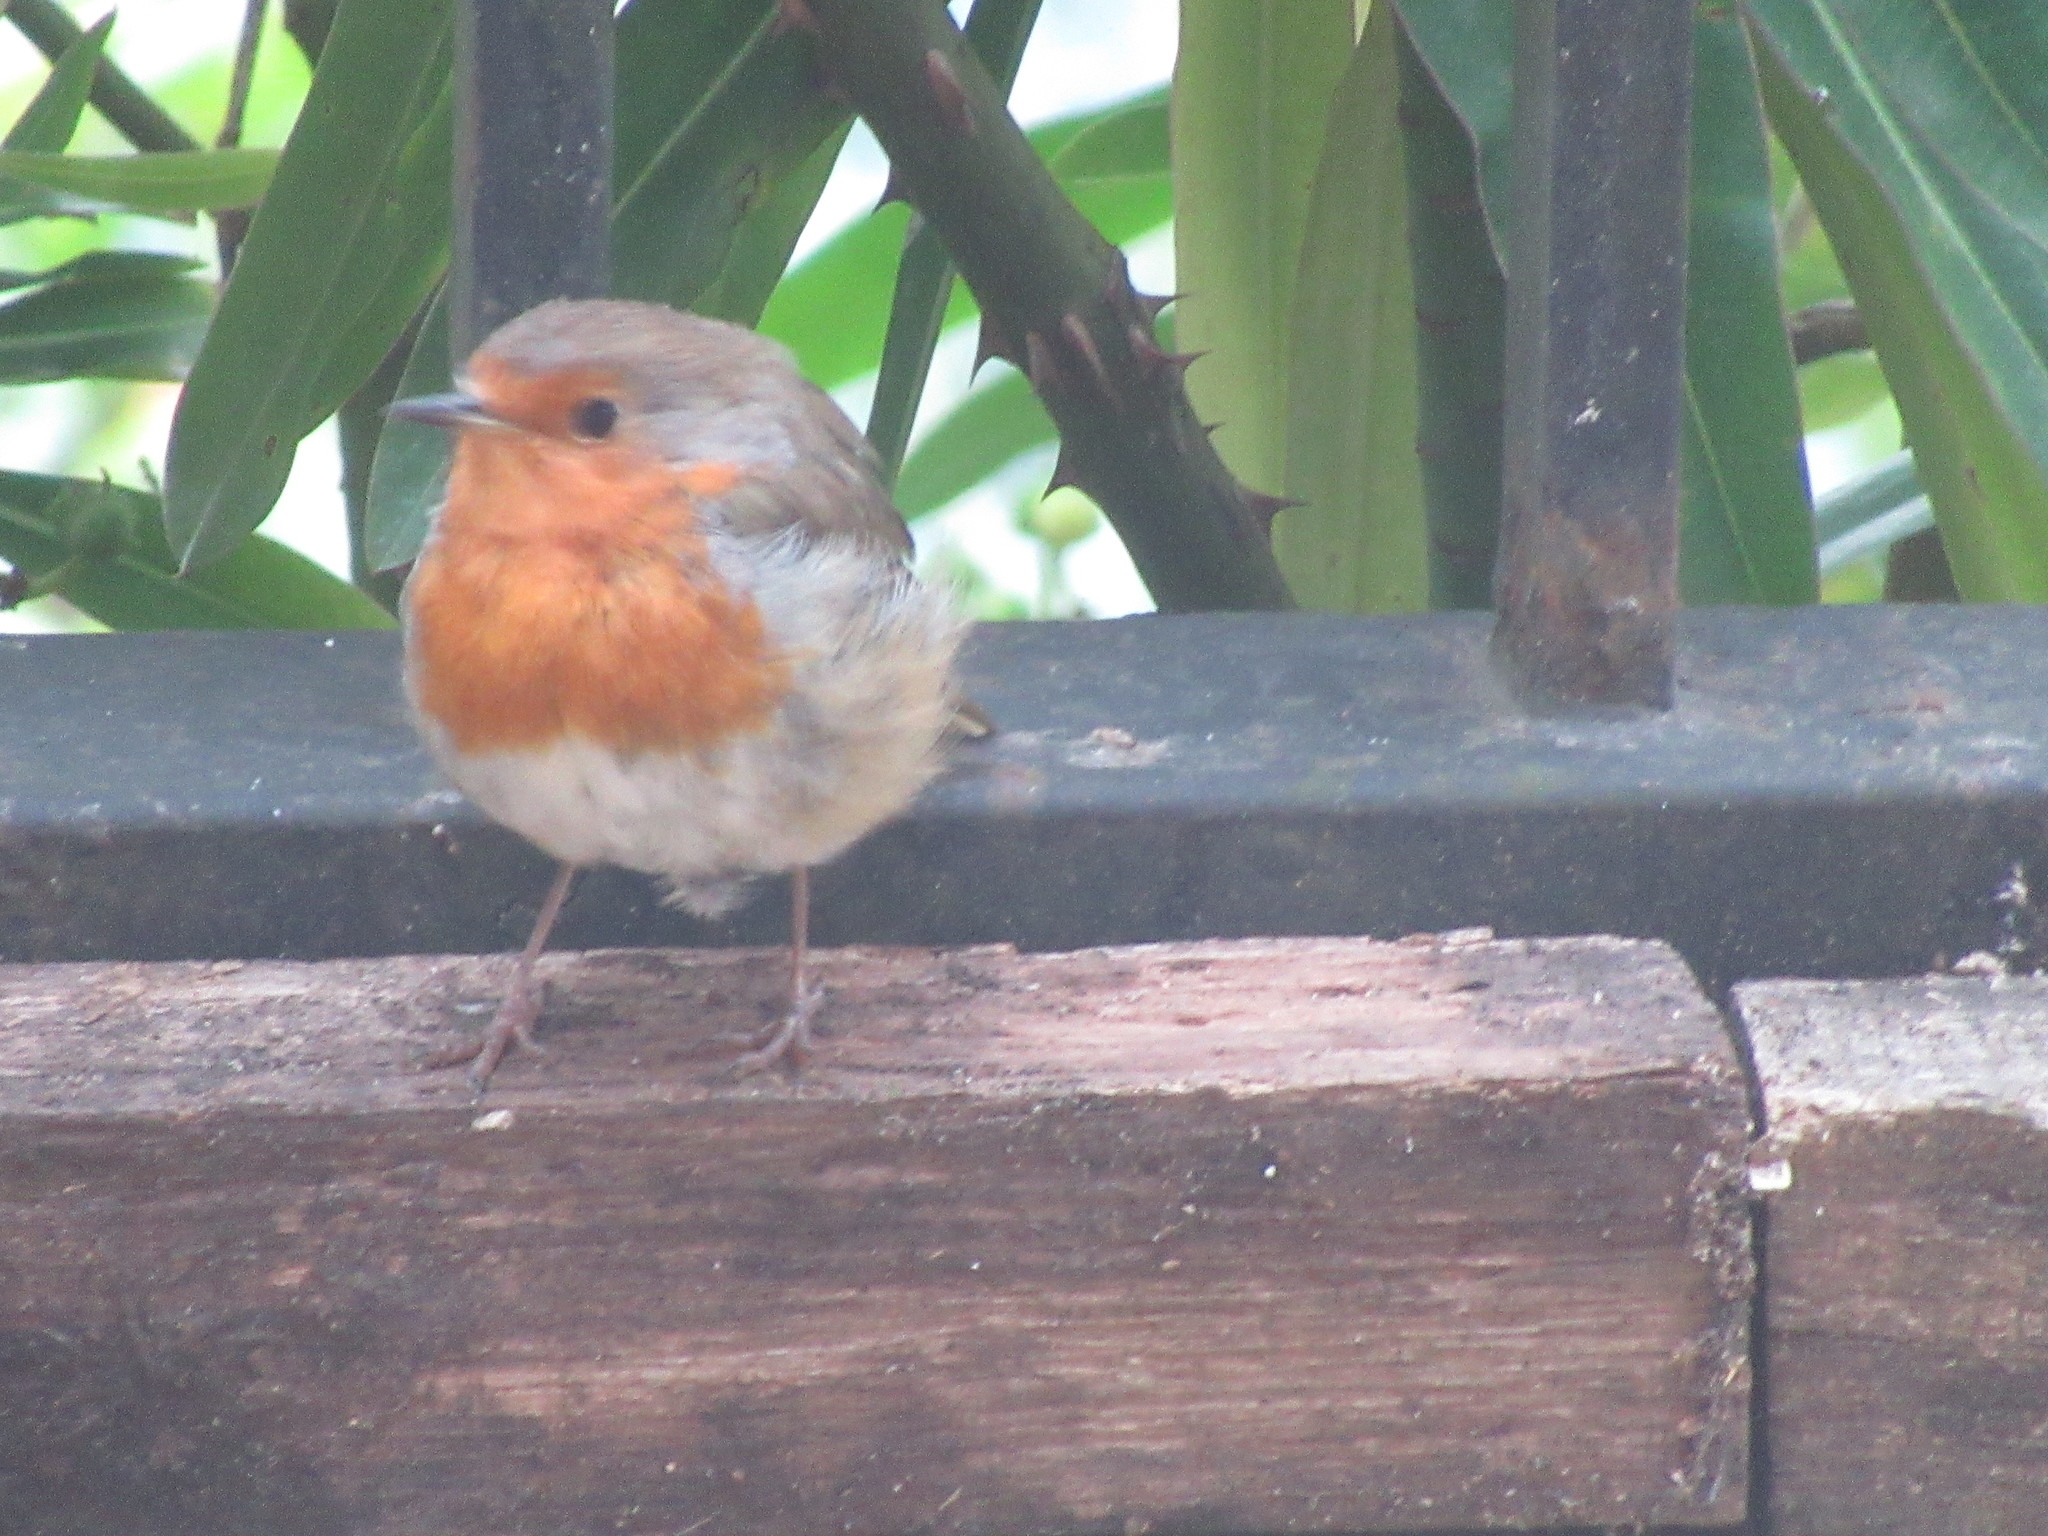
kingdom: Animalia
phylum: Chordata
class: Aves
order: Passeriformes
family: Muscicapidae
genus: Erithacus
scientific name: Erithacus rubecula
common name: European robin
